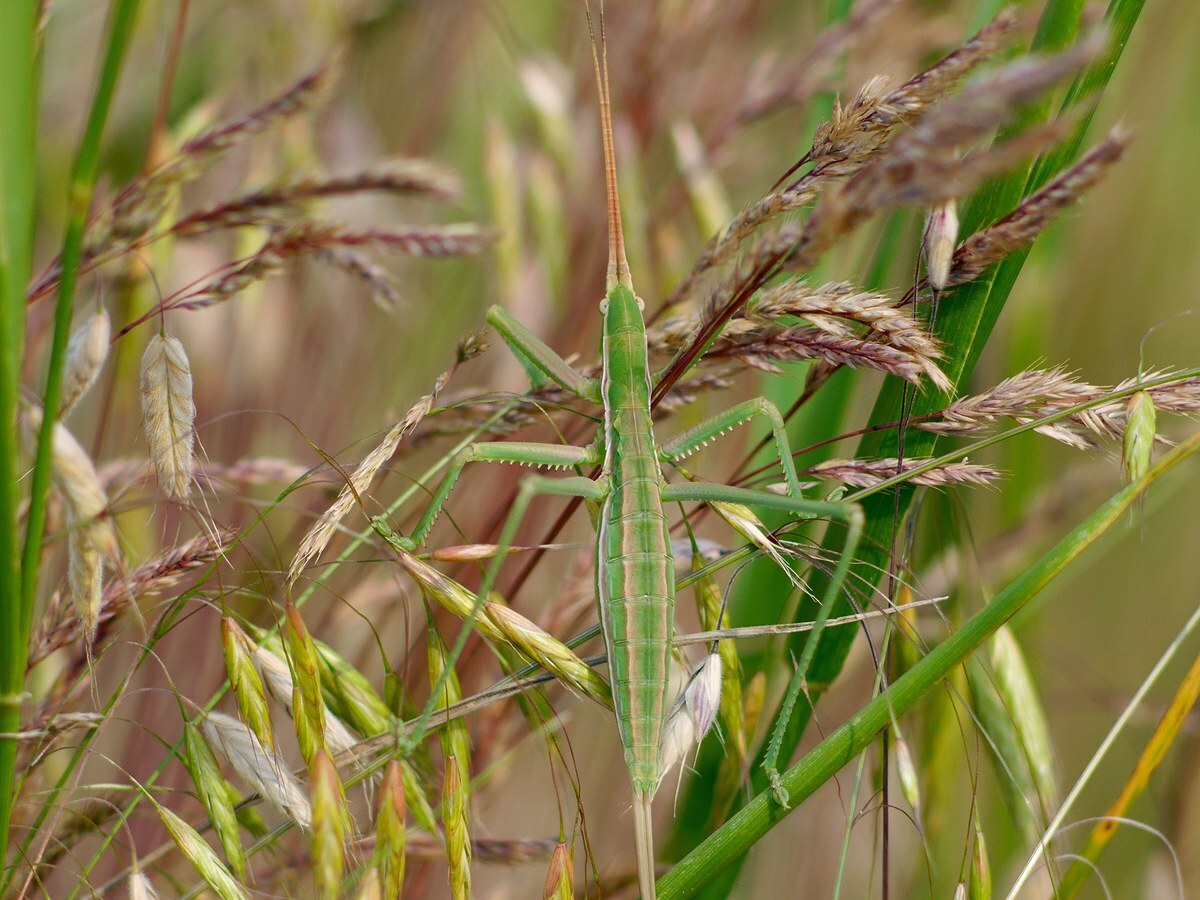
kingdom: Animalia
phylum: Arthropoda
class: Insecta
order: Orthoptera
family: Tettigoniidae
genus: Saga
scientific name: Saga pedo
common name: Common predatory bush-cricket
